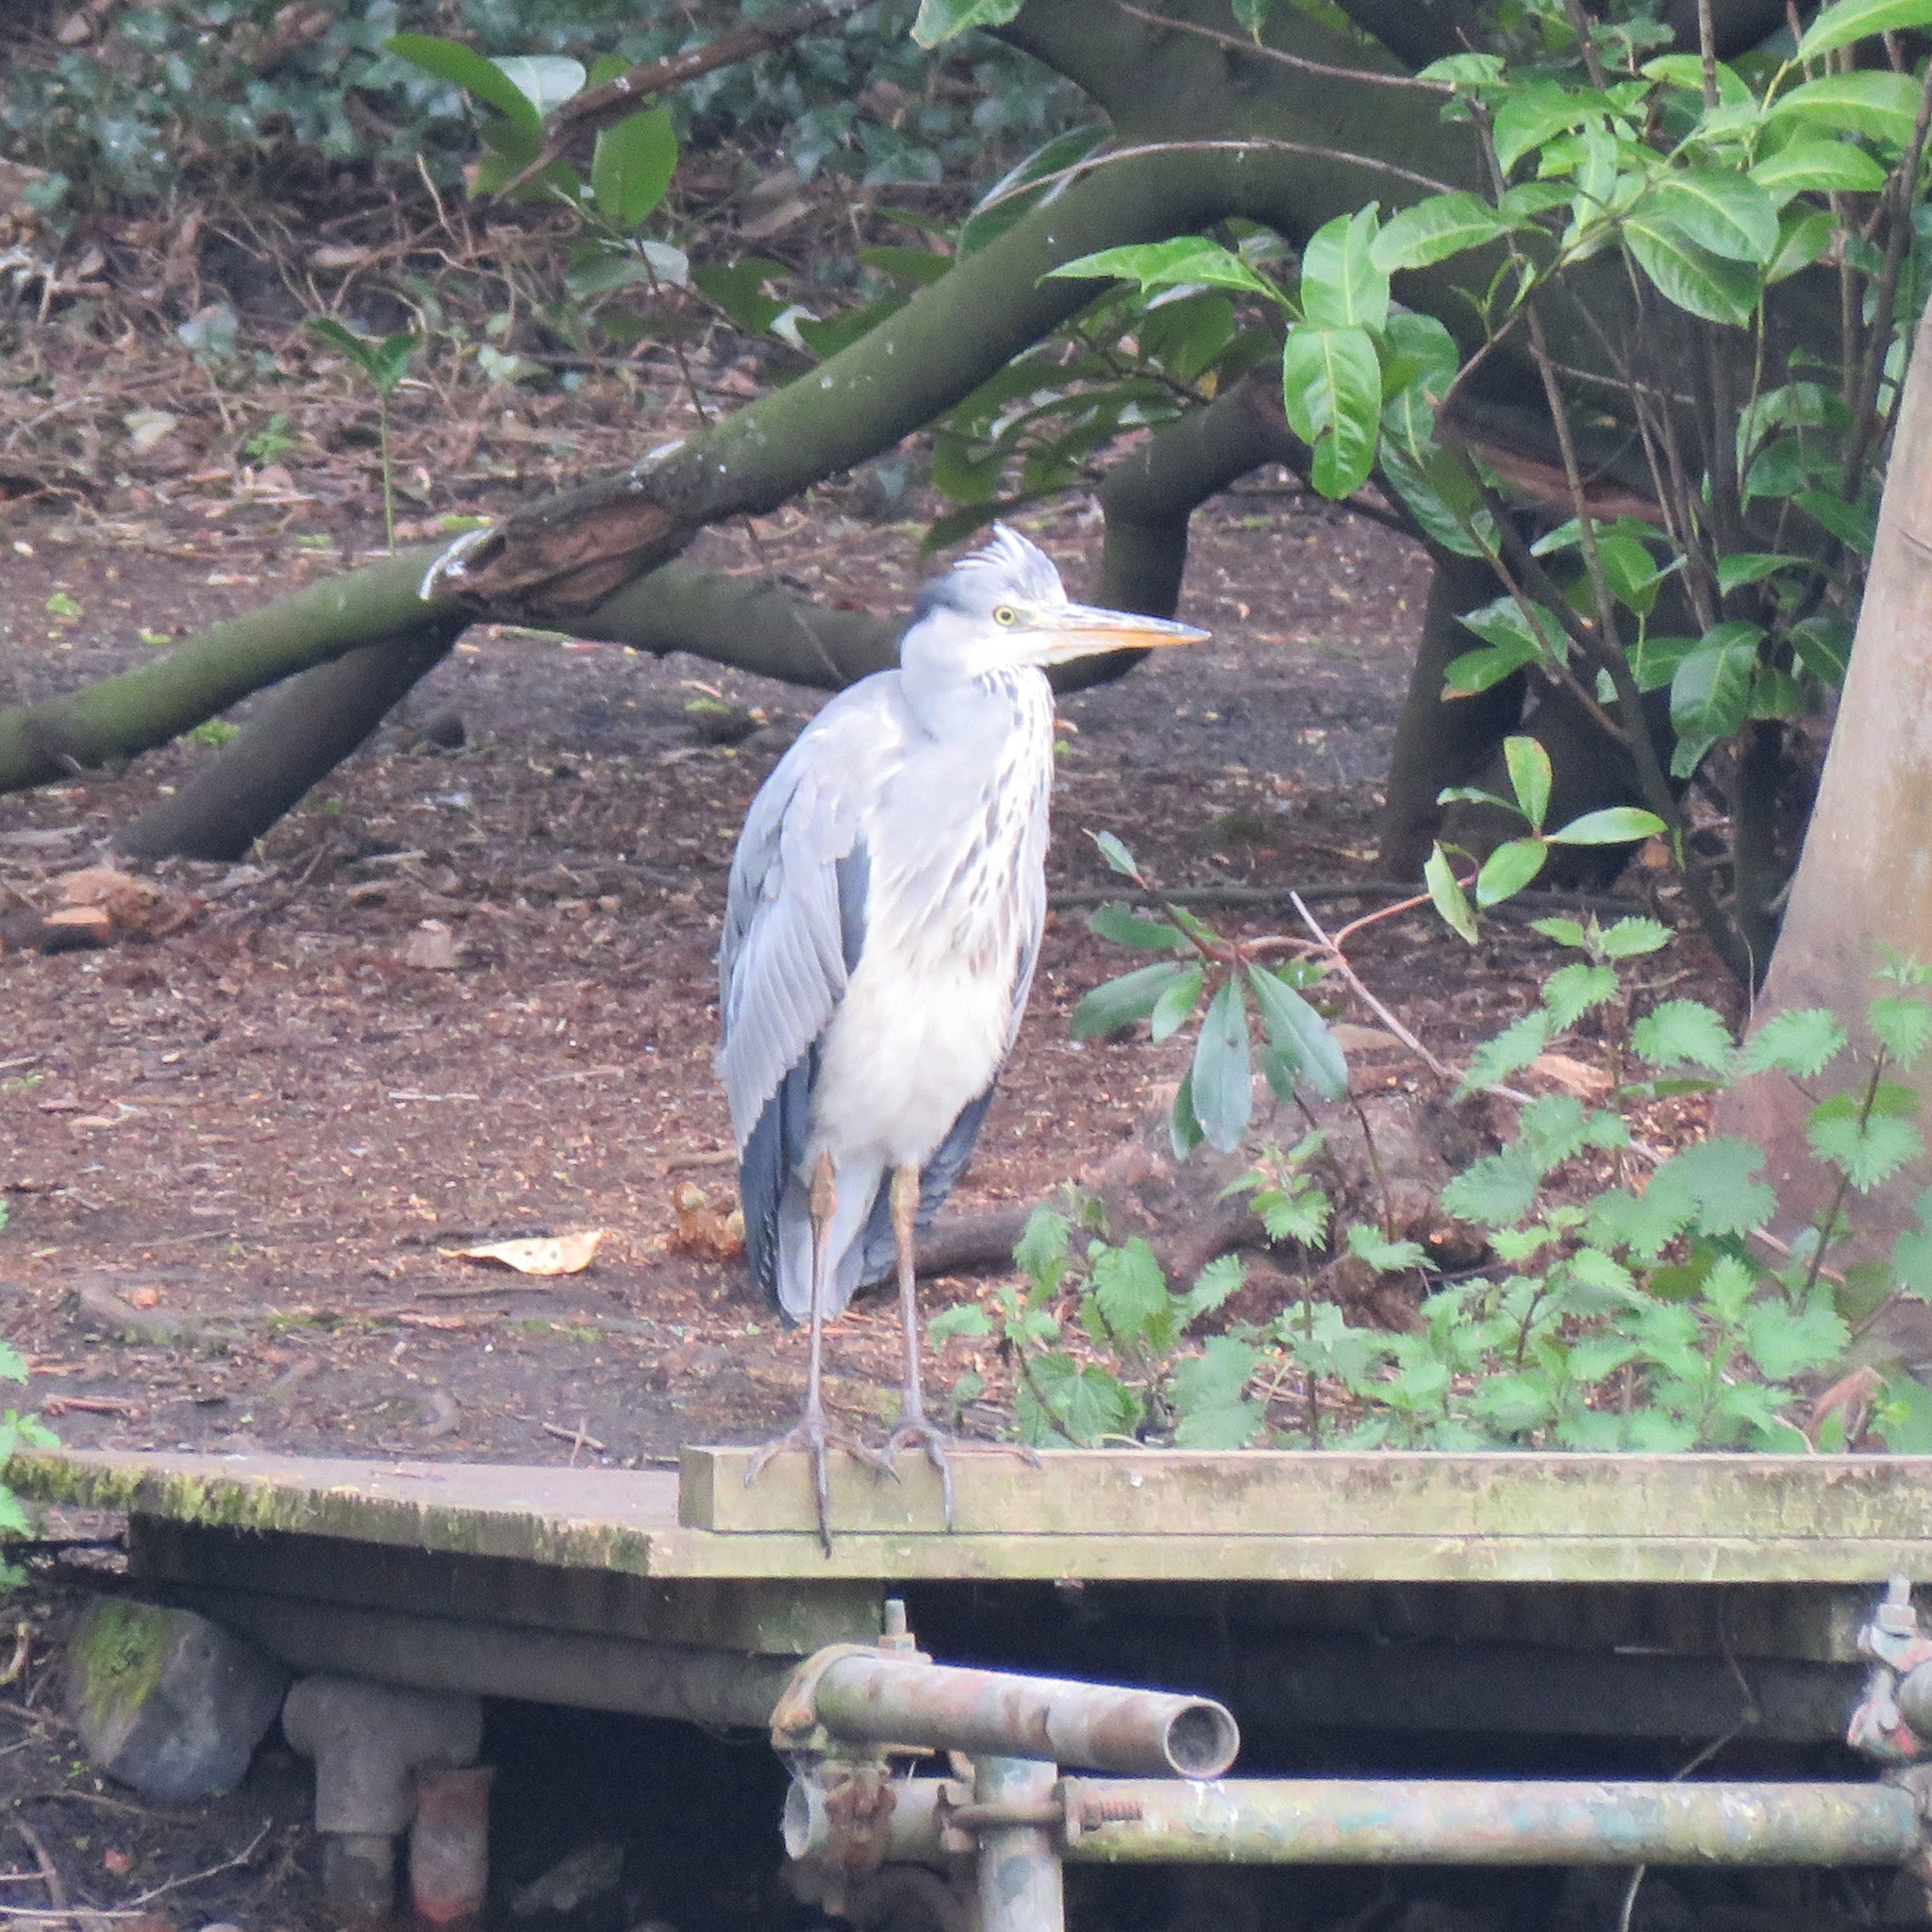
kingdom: Animalia
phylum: Chordata
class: Aves
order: Pelecaniformes
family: Ardeidae
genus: Ardea
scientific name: Ardea cinerea
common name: Grey heron
